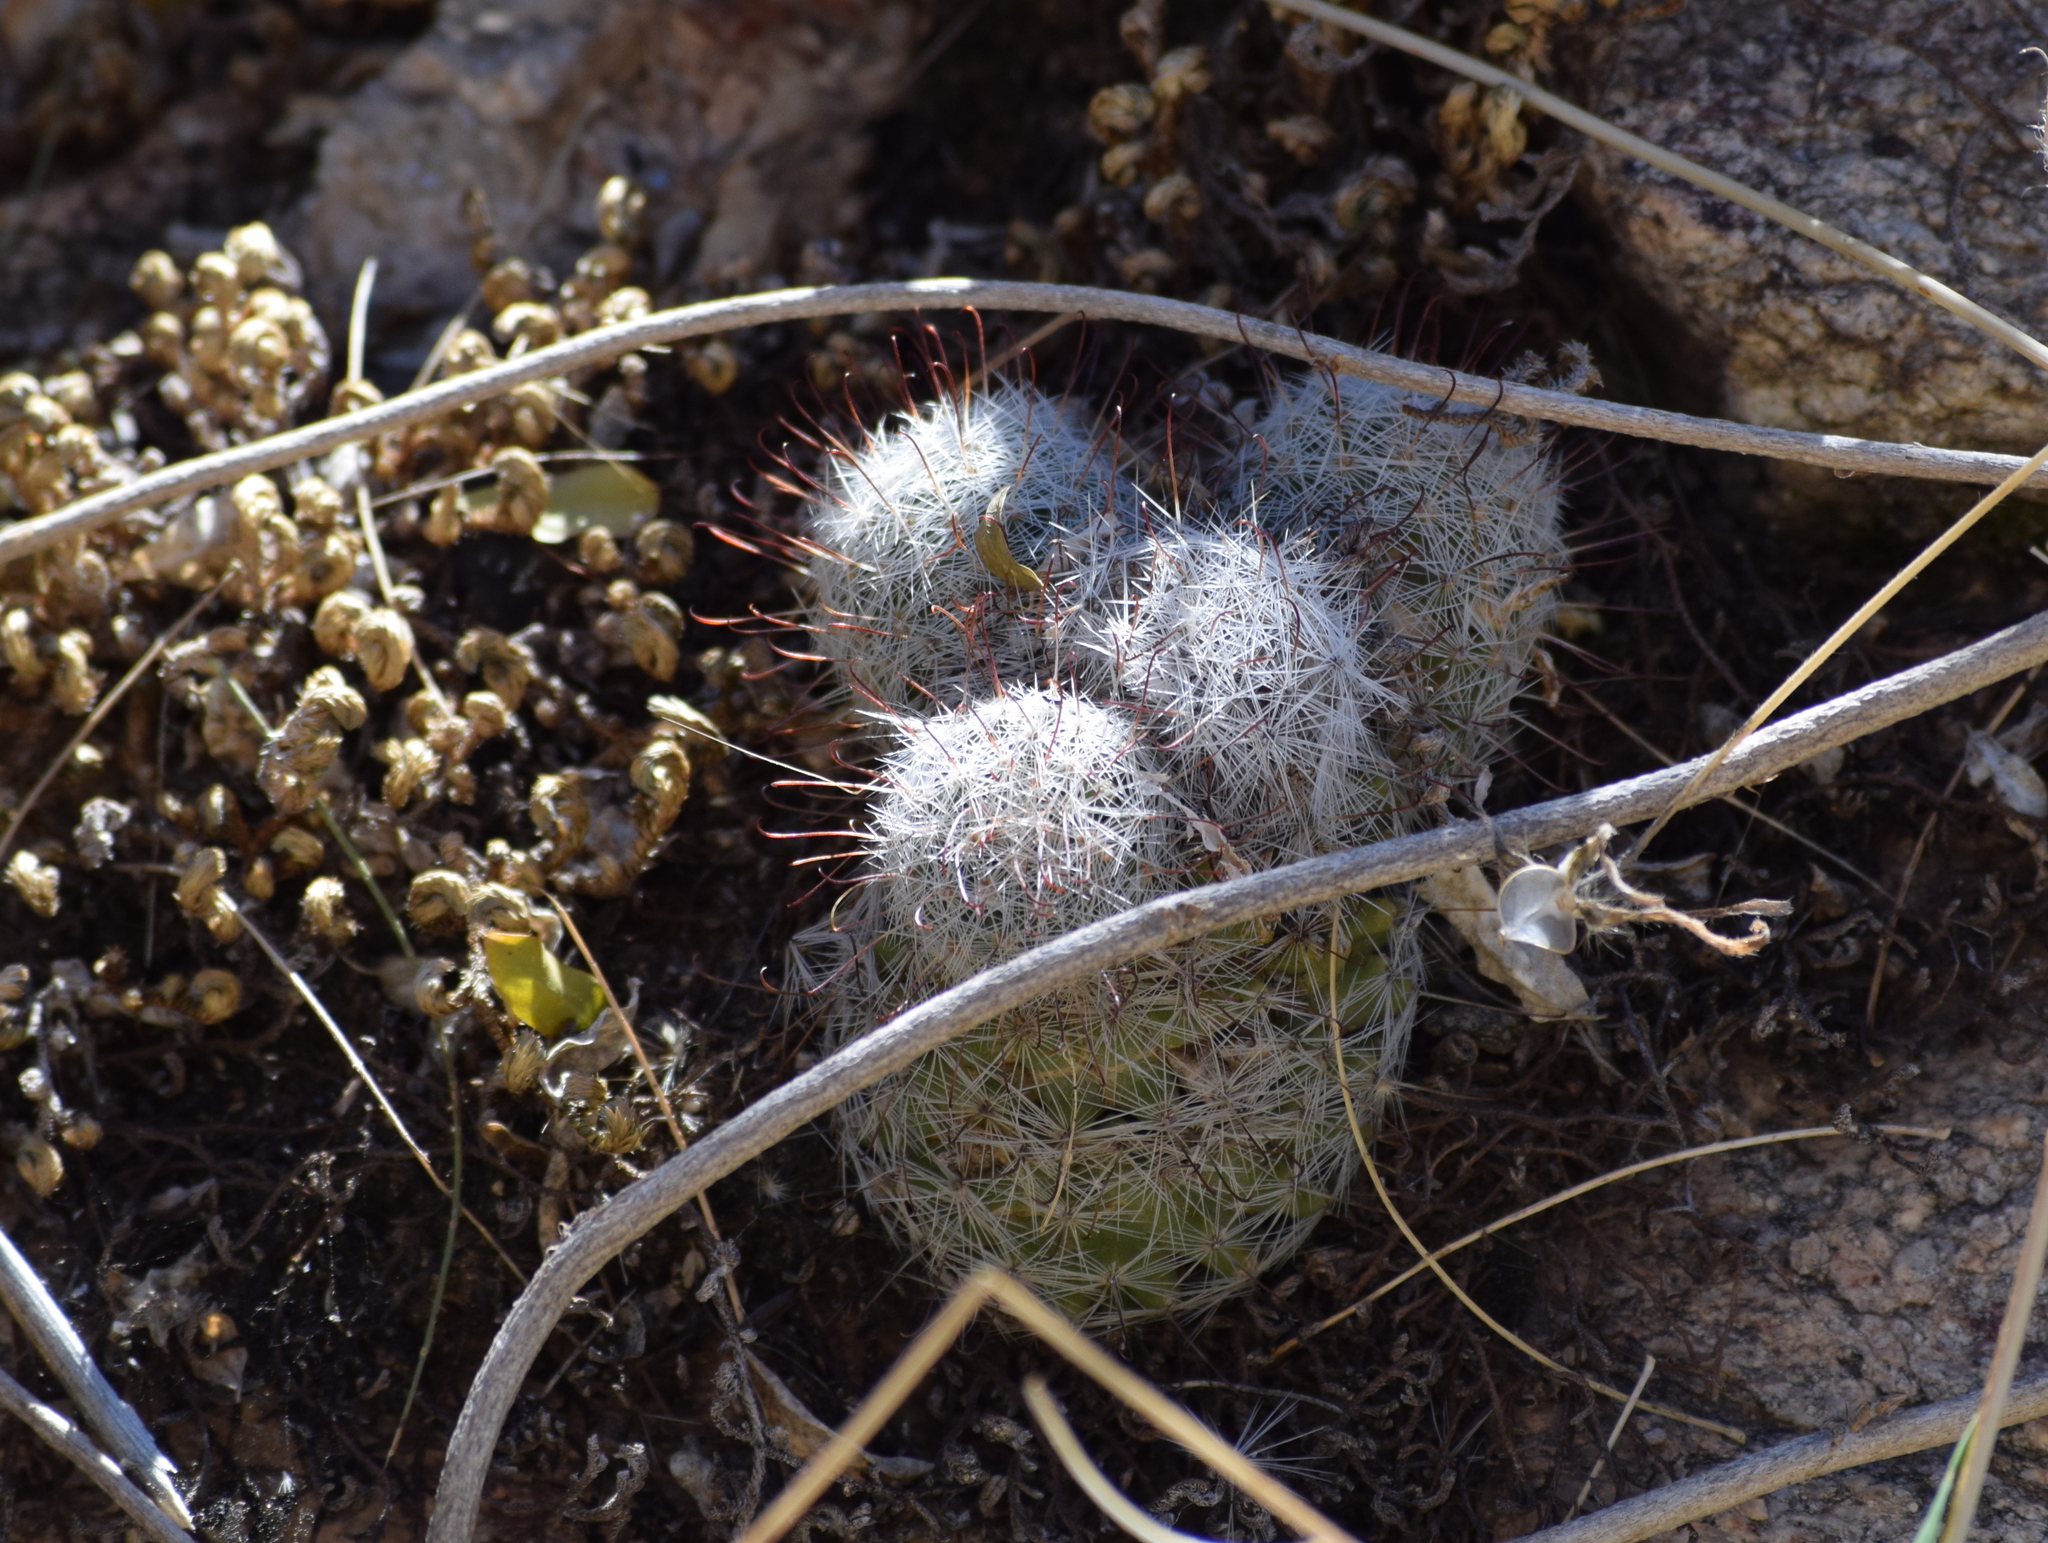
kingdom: Plantae
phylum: Tracheophyta
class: Magnoliopsida
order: Caryophyllales
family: Cactaceae
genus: Cochemiea
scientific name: Cochemiea grahamii
